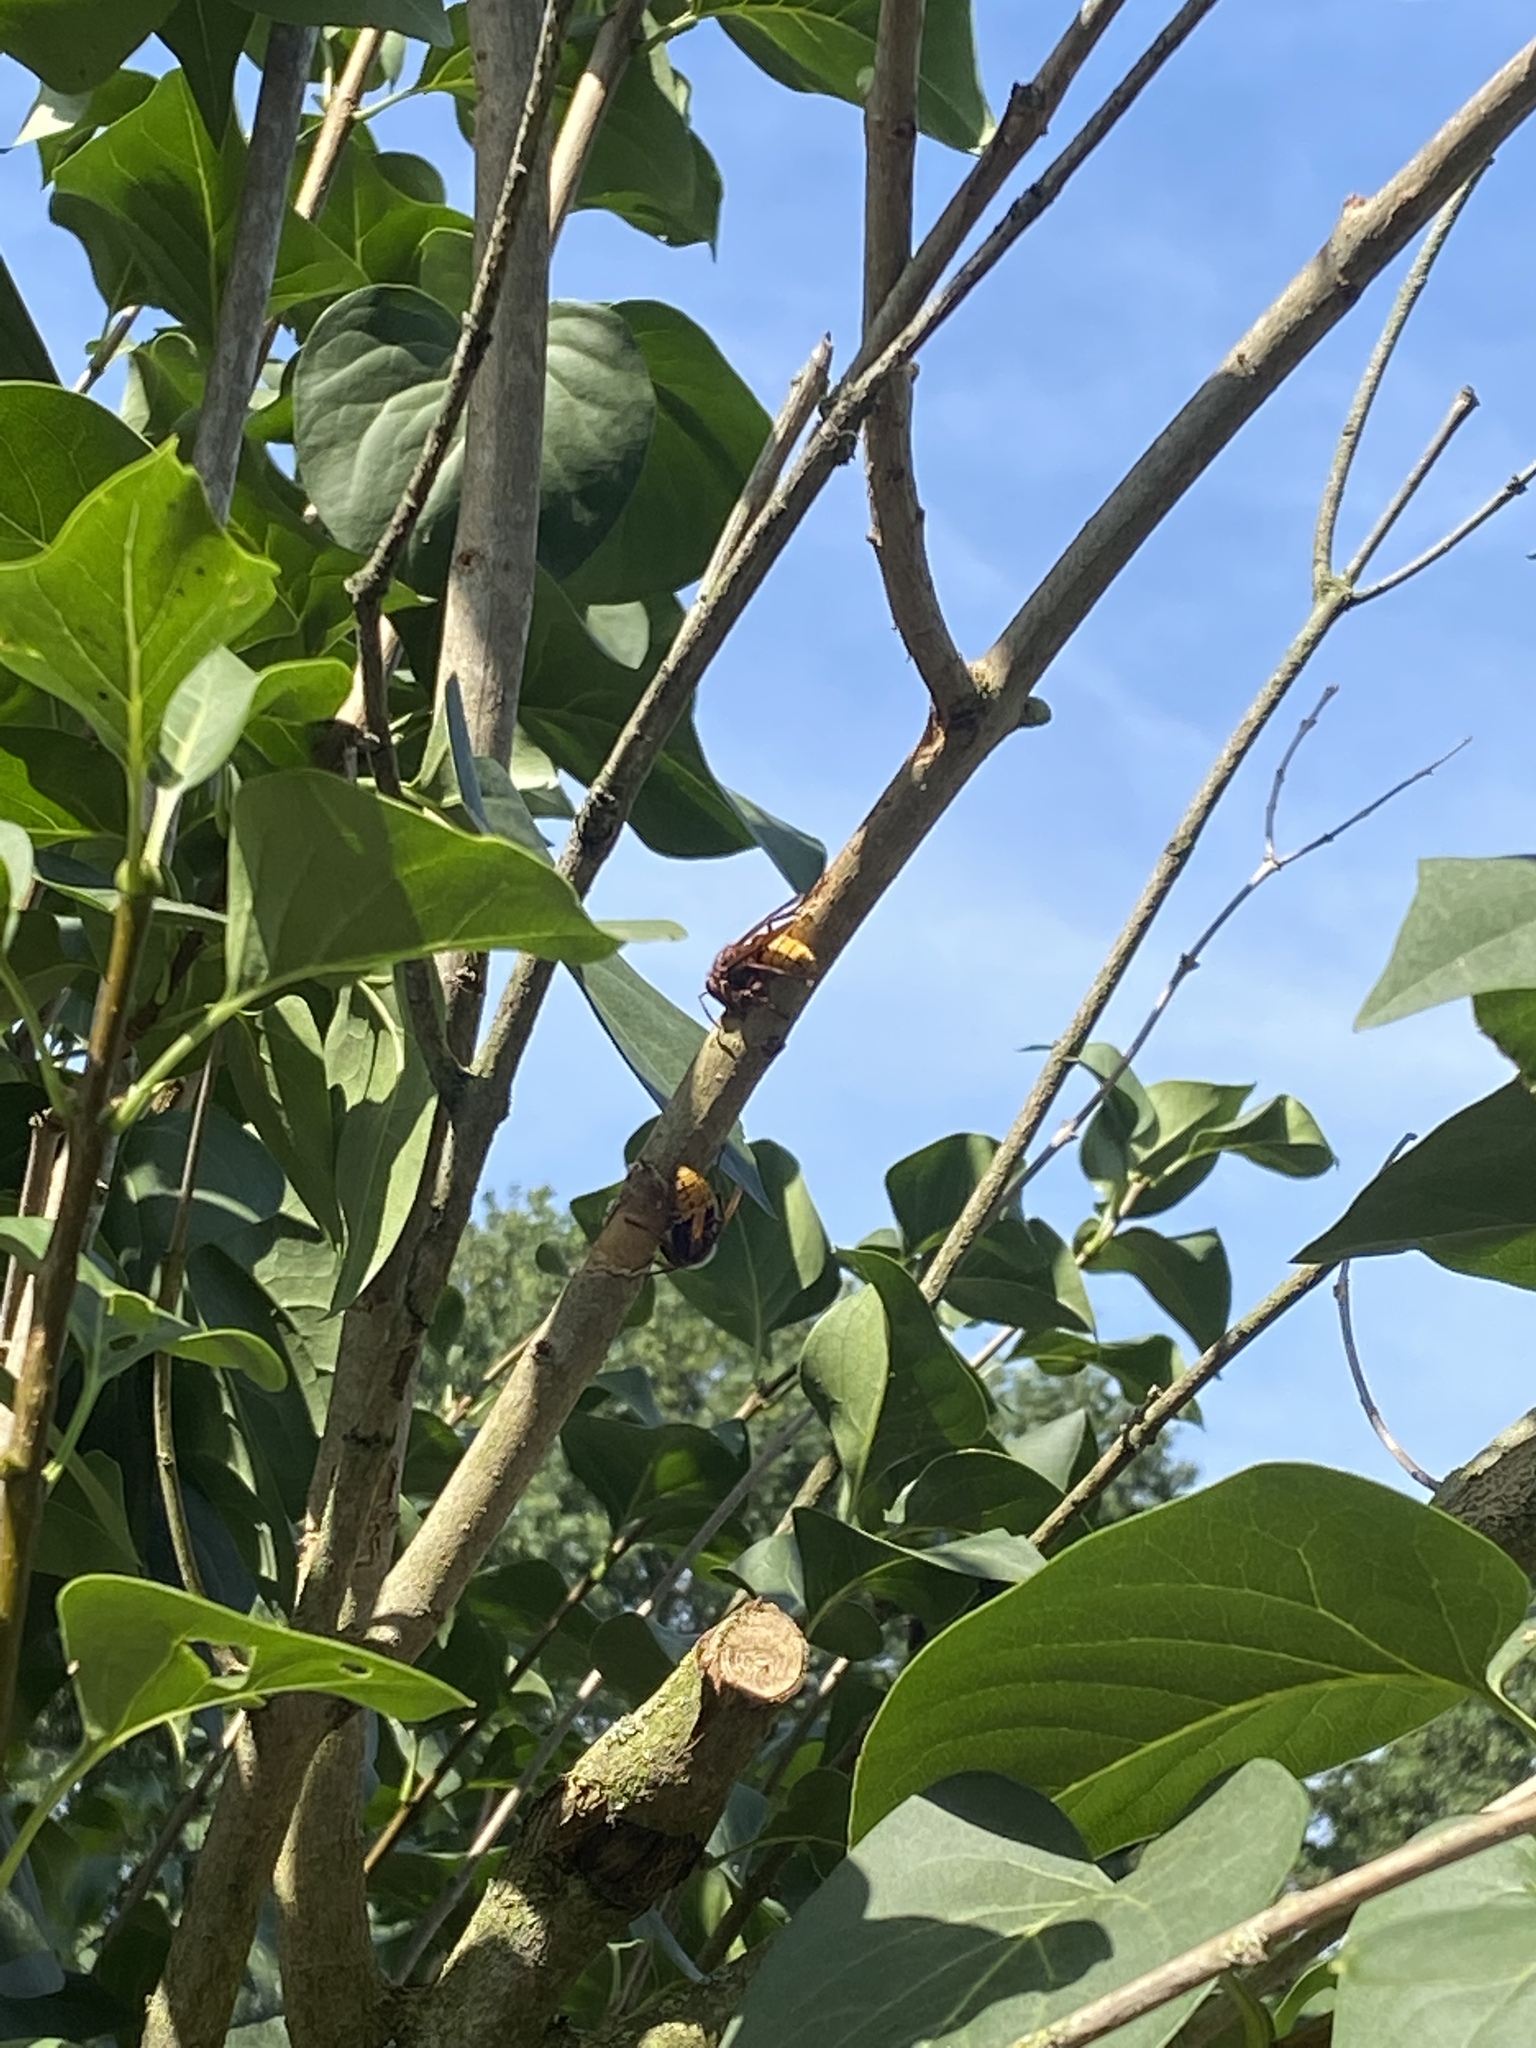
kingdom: Animalia
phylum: Arthropoda
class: Insecta
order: Hymenoptera
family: Vespidae
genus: Vespa
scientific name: Vespa crabro
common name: Hornet
